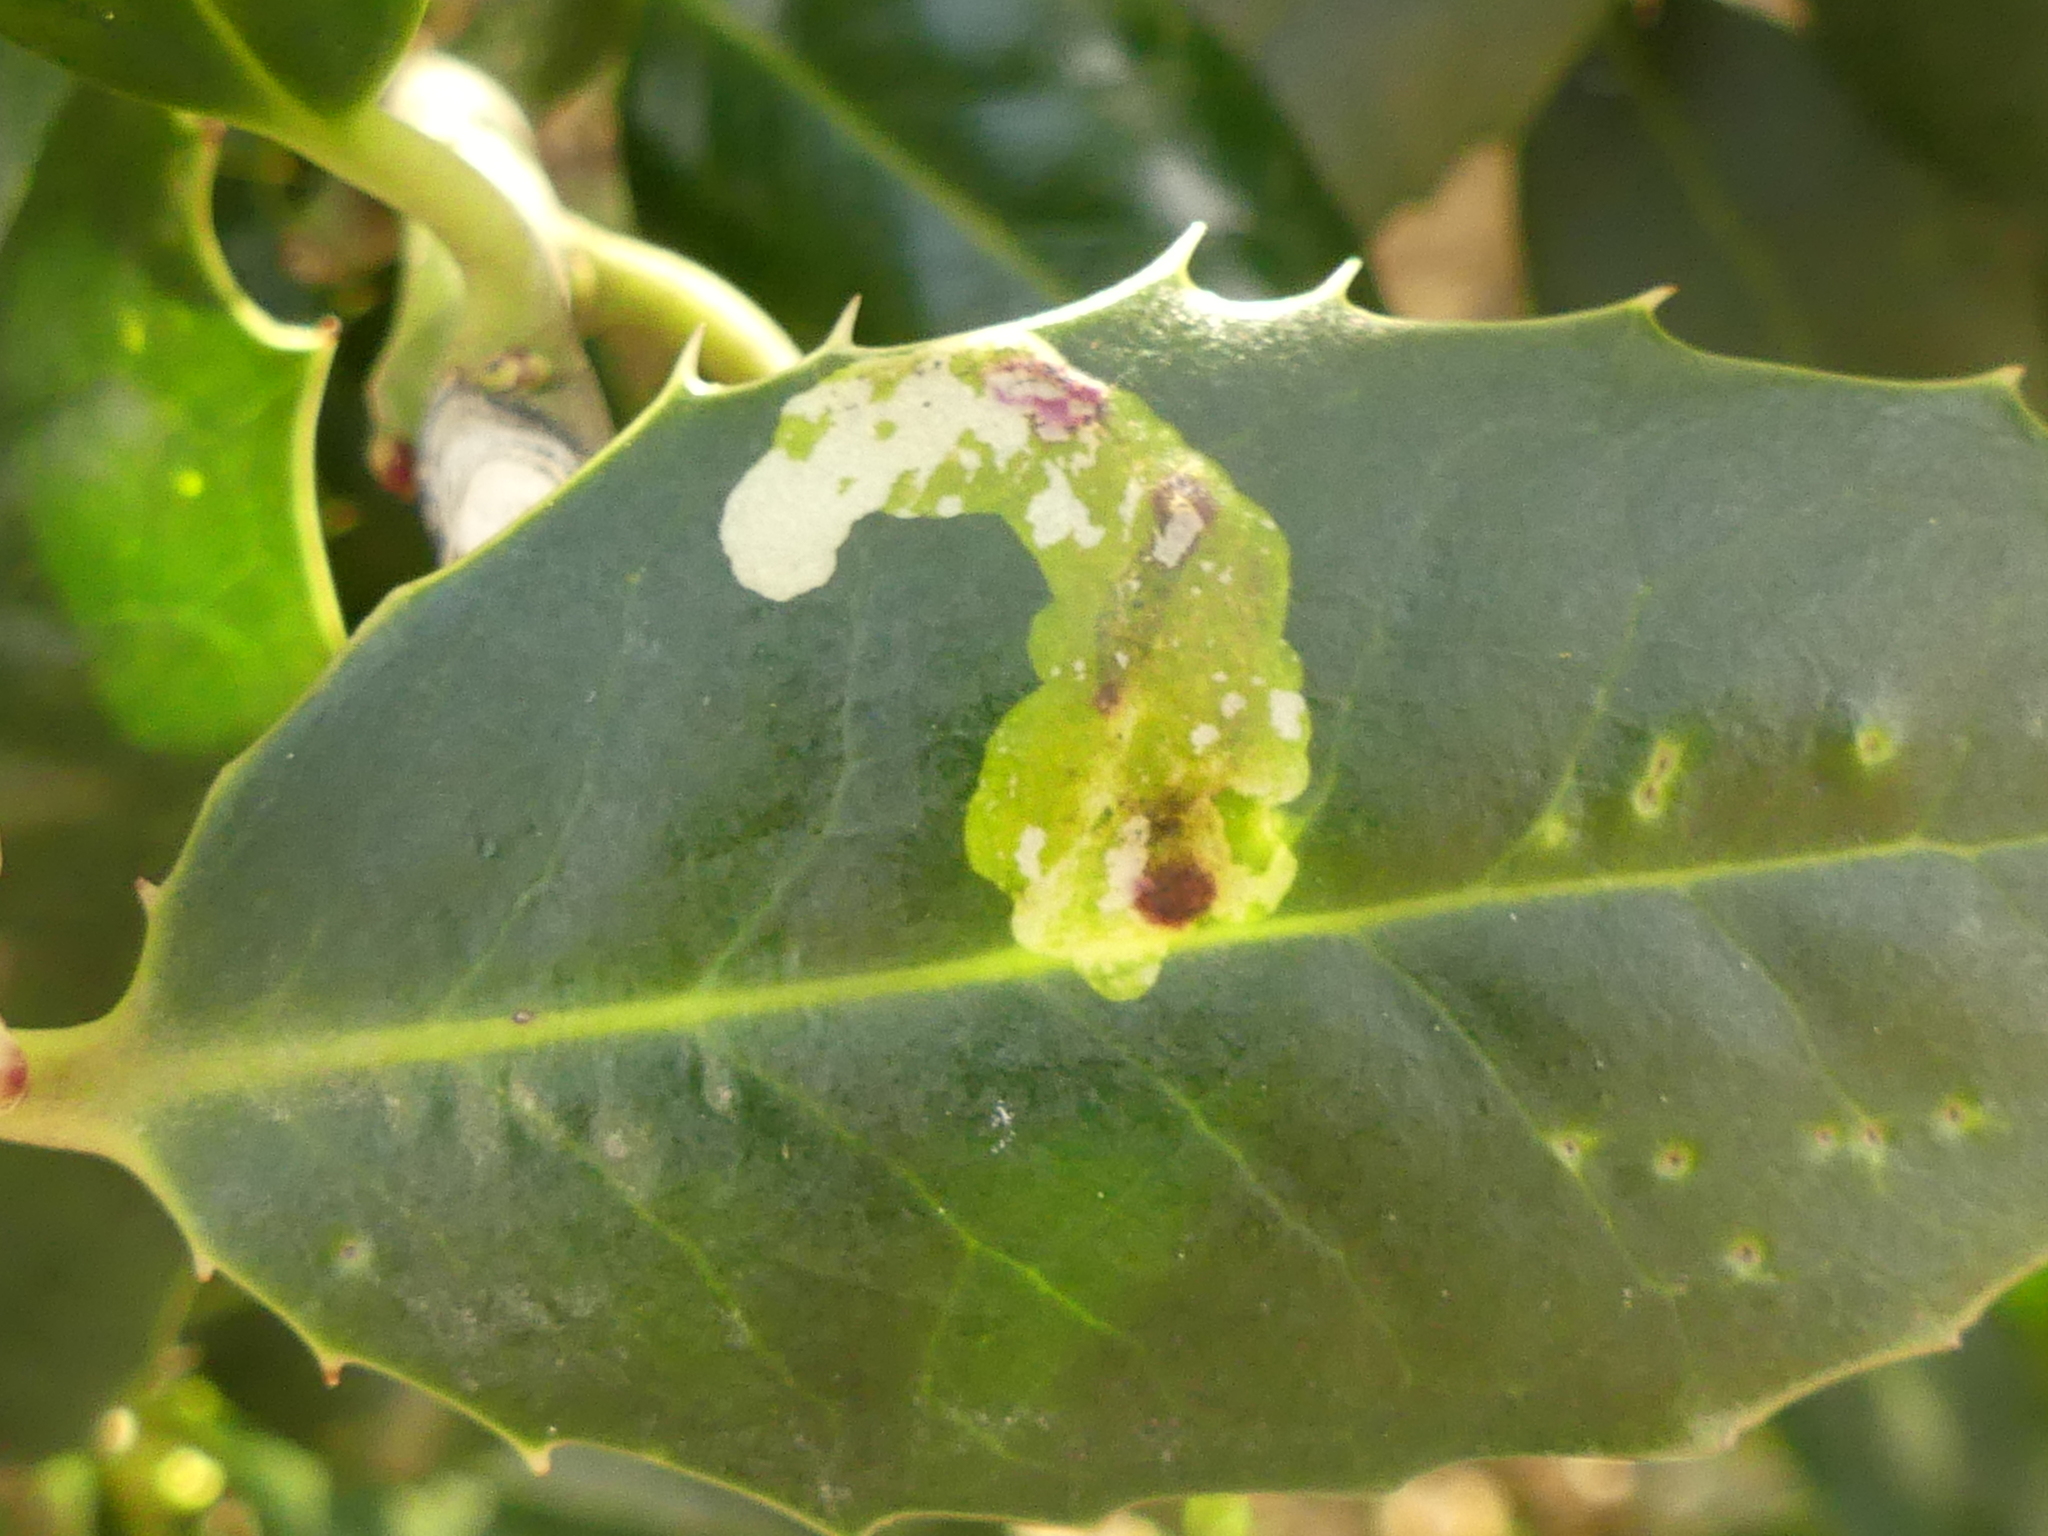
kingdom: Animalia
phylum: Arthropoda
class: Insecta
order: Diptera
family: Agromyzidae
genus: Phytomyza
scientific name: Phytomyza ilicis
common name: Holly leafminer
